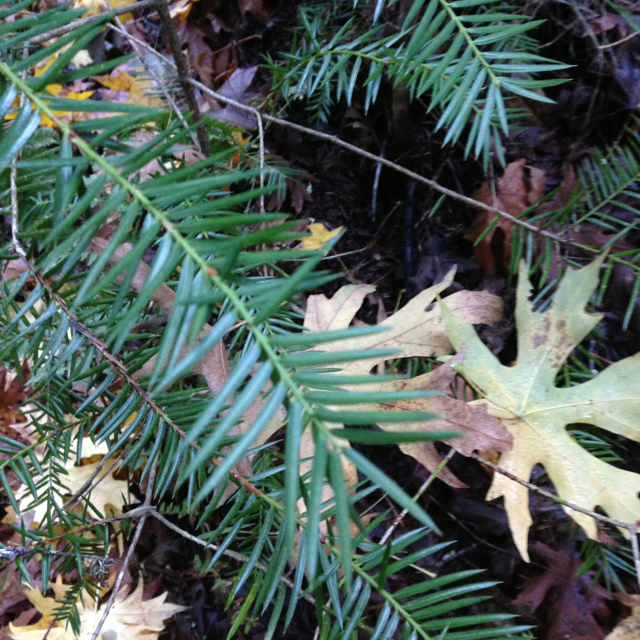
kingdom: Plantae
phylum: Tracheophyta
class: Pinopsida
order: Pinales
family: Taxaceae
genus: Torreya
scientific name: Torreya californica
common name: California torreya
